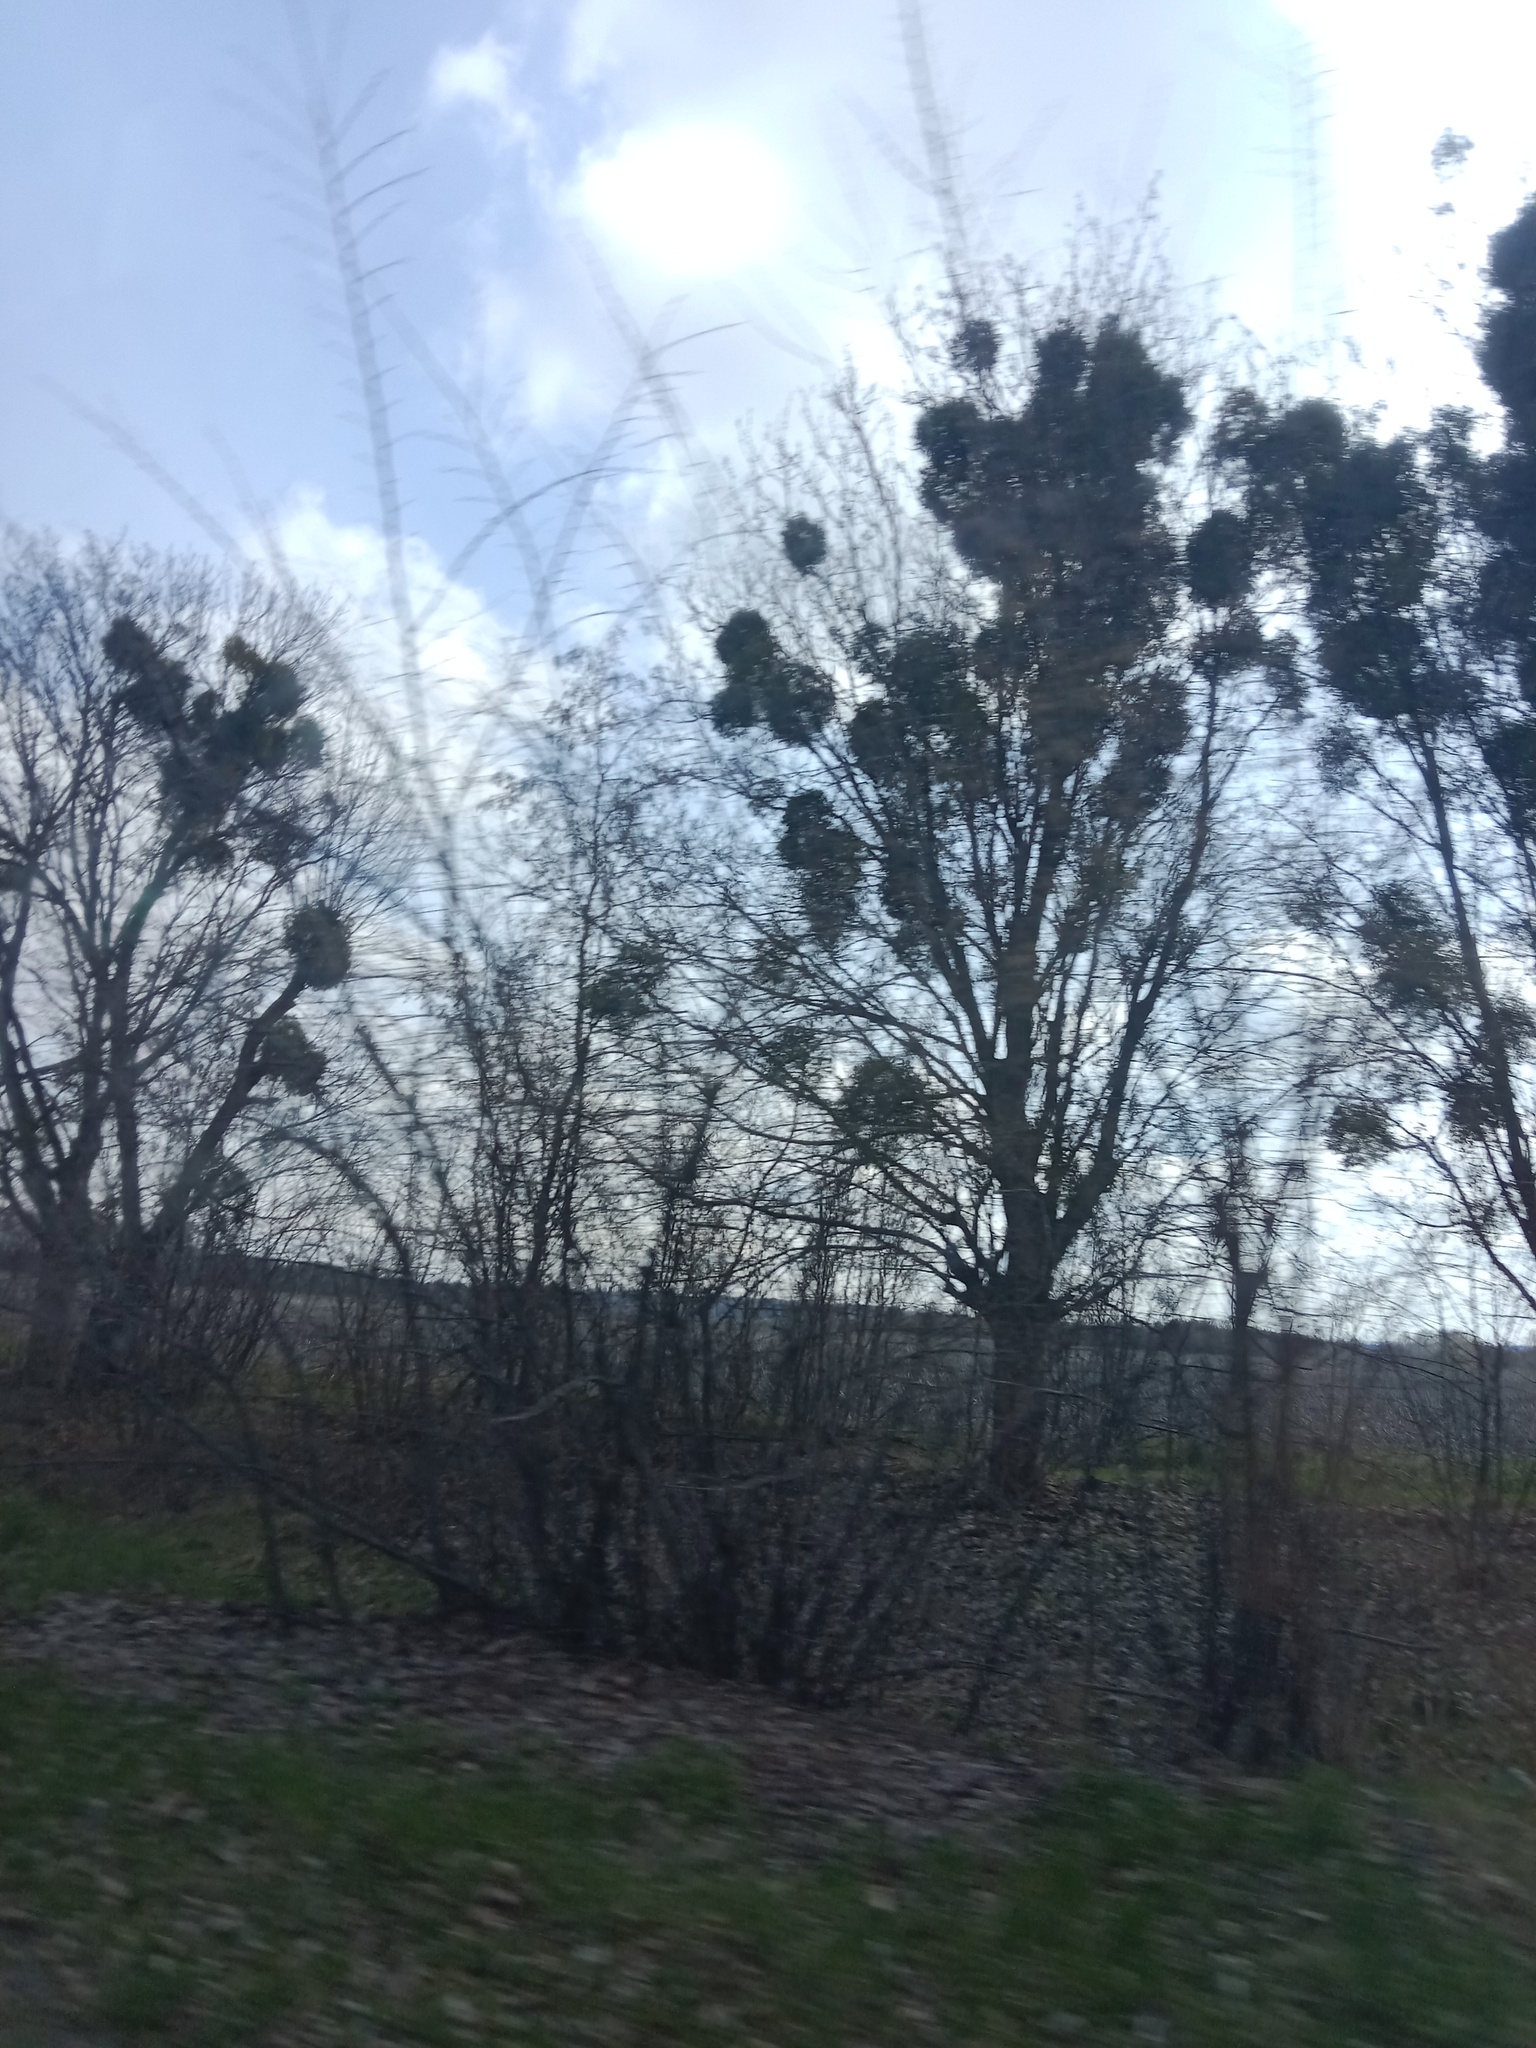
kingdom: Plantae
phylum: Tracheophyta
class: Magnoliopsida
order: Santalales
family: Viscaceae
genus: Viscum
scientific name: Viscum album
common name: Mistletoe
